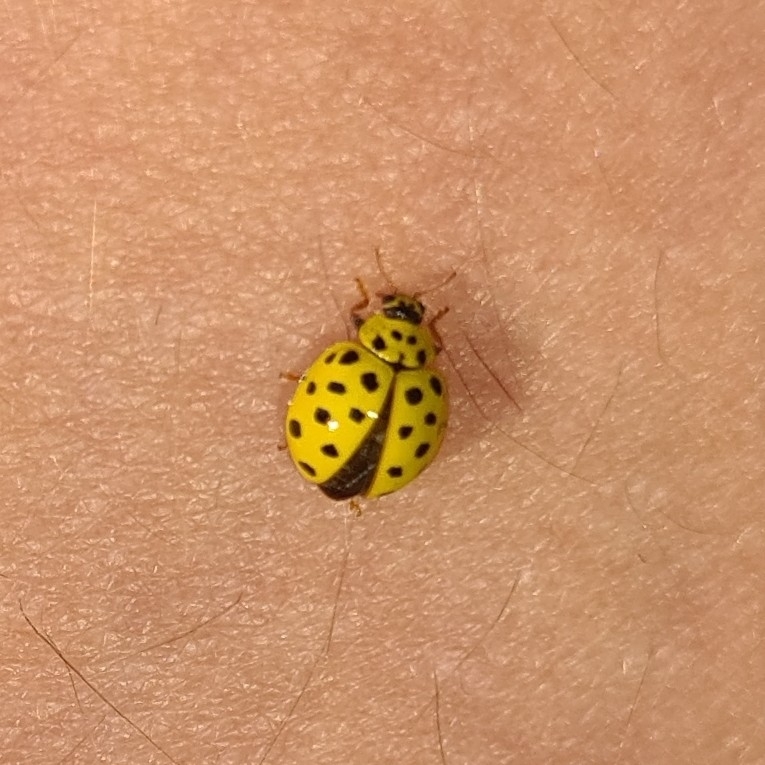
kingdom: Animalia
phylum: Arthropoda
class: Insecta
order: Coleoptera
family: Coccinellidae
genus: Psyllobora
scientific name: Psyllobora vigintiduopunctata
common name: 22-spot ladybird
